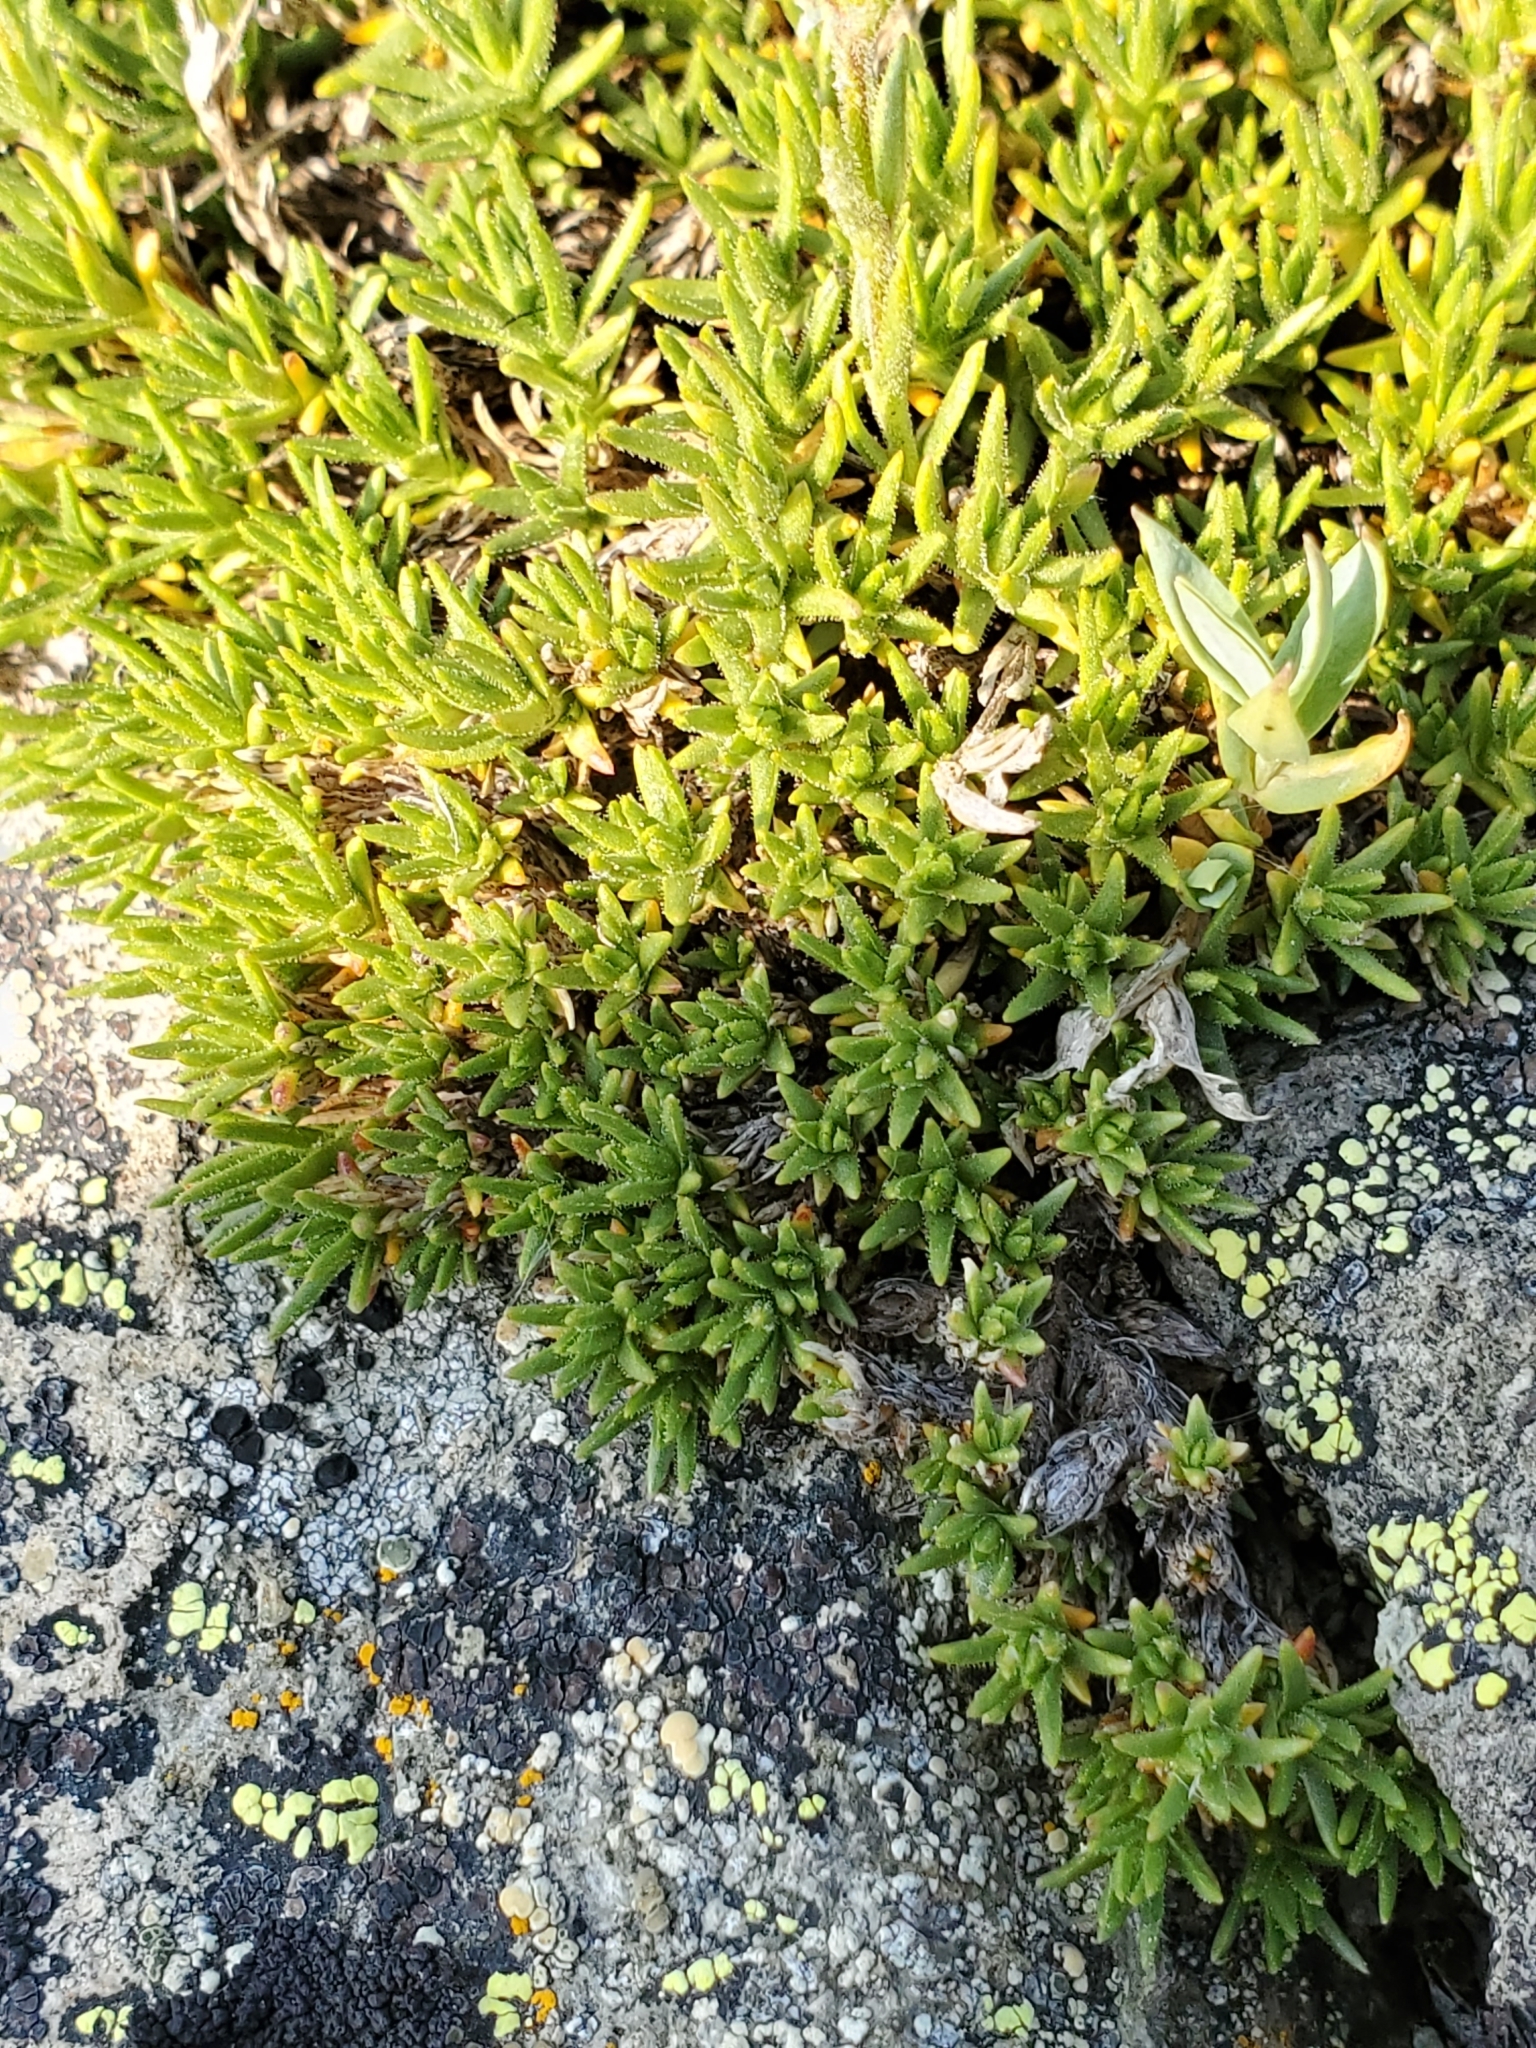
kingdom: Plantae
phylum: Tracheophyta
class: Magnoliopsida
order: Caryophyllales
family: Caryophyllaceae
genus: Cherleria
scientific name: Cherleria obtusiloba
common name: Alpine stitchwort
